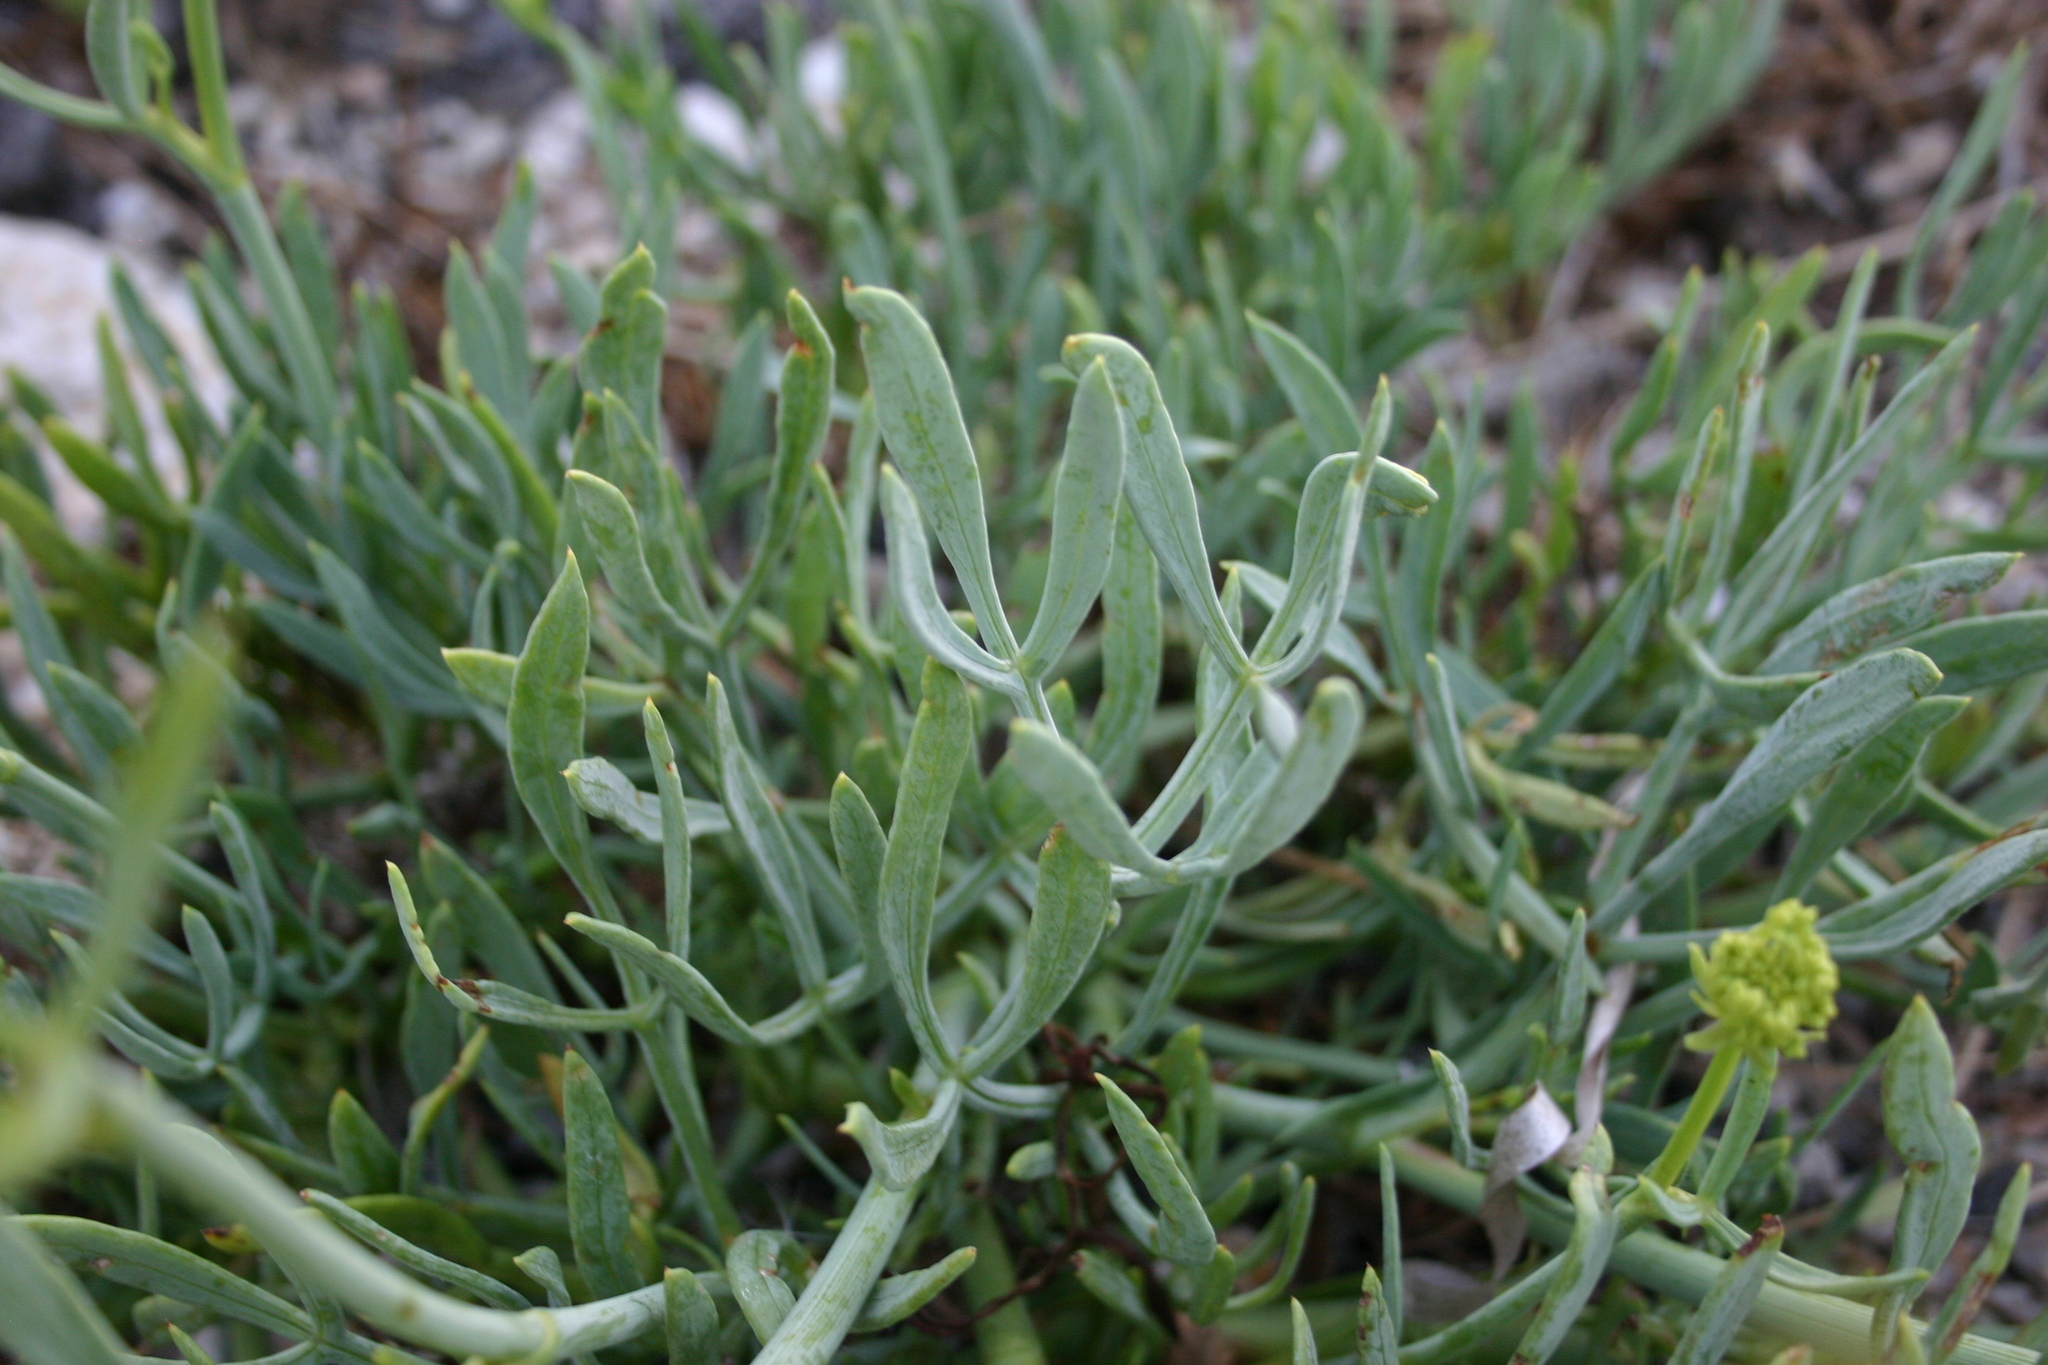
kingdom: Plantae
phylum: Tracheophyta
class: Magnoliopsida
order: Apiales
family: Apiaceae
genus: Crithmum
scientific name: Crithmum maritimum
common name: Rock samphire
